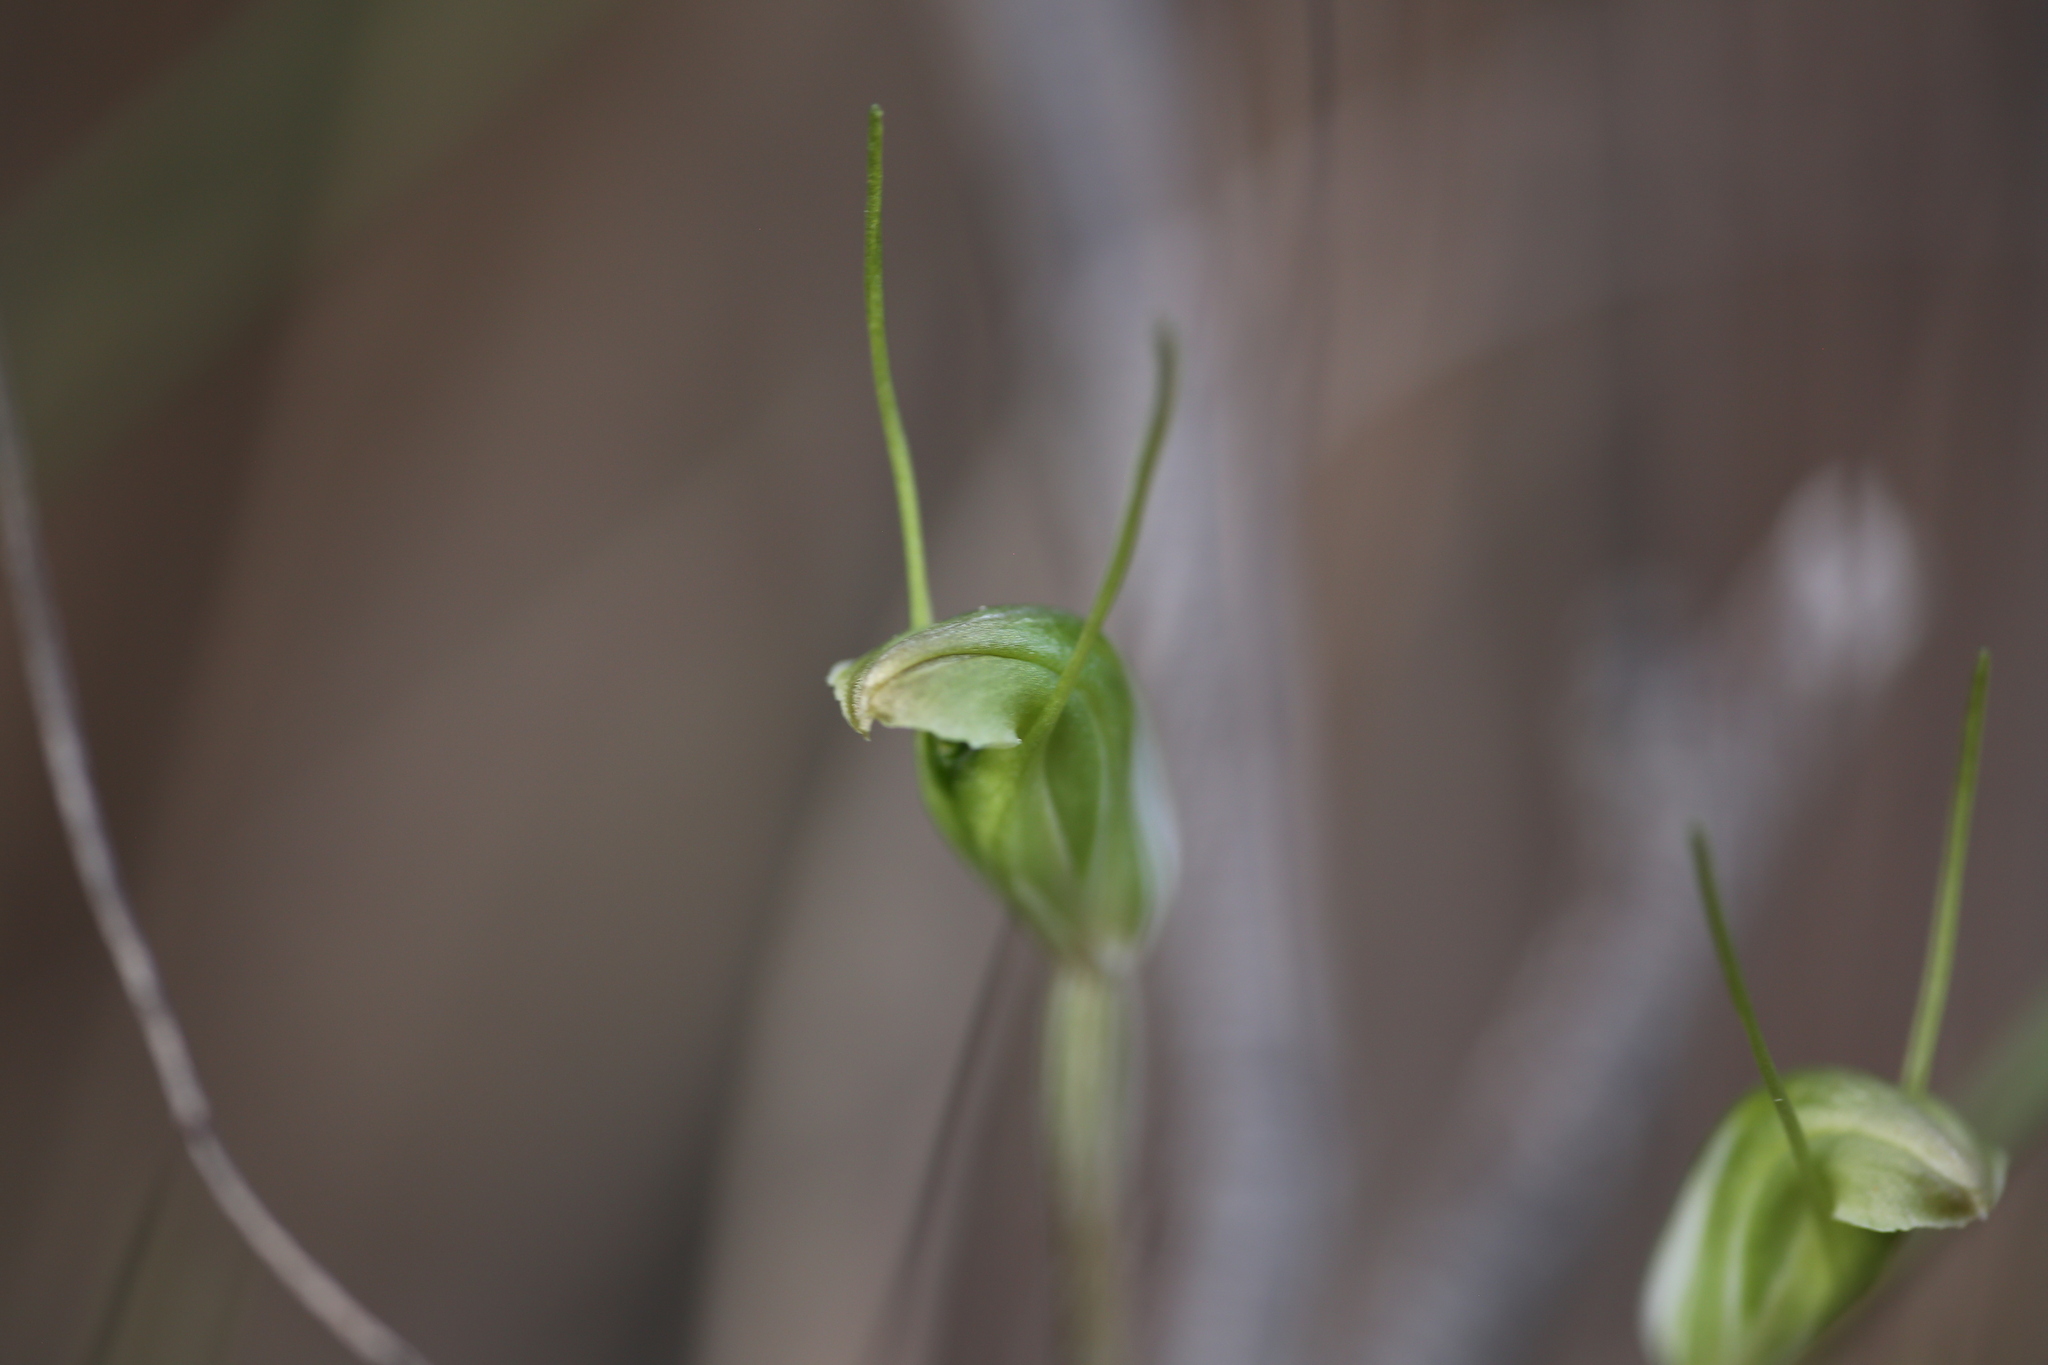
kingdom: Plantae
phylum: Tracheophyta
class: Liliopsida
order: Asparagales
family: Orchidaceae
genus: Pterostylis
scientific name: Pterostylis setulosa
